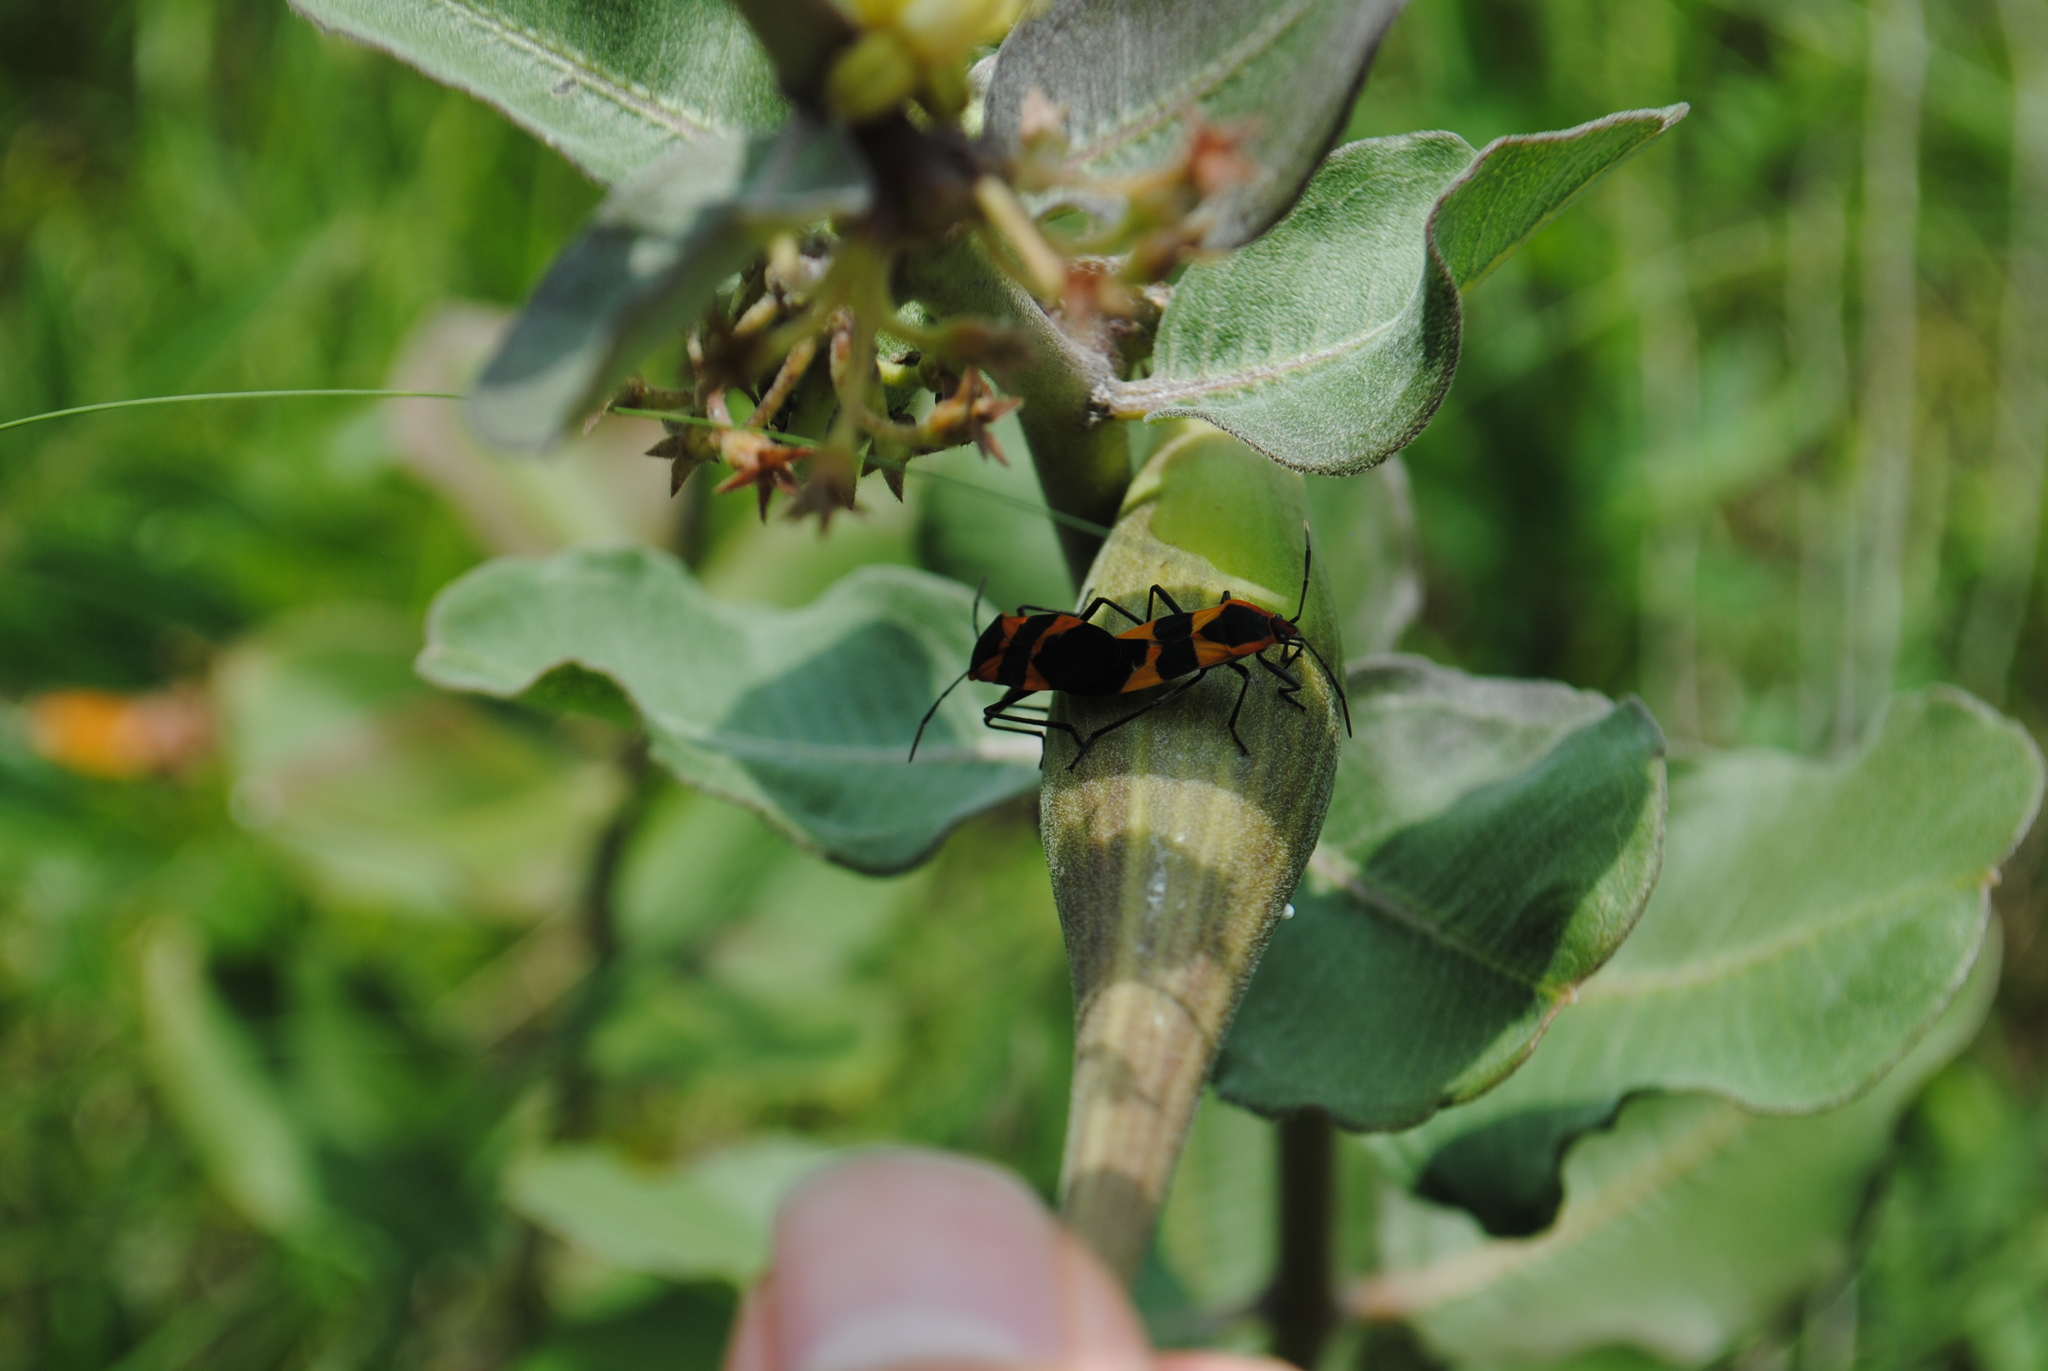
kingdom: Animalia
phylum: Arthropoda
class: Insecta
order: Hemiptera
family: Lygaeidae
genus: Oncopeltus
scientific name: Oncopeltus fasciatus
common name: Large milkweed bug
